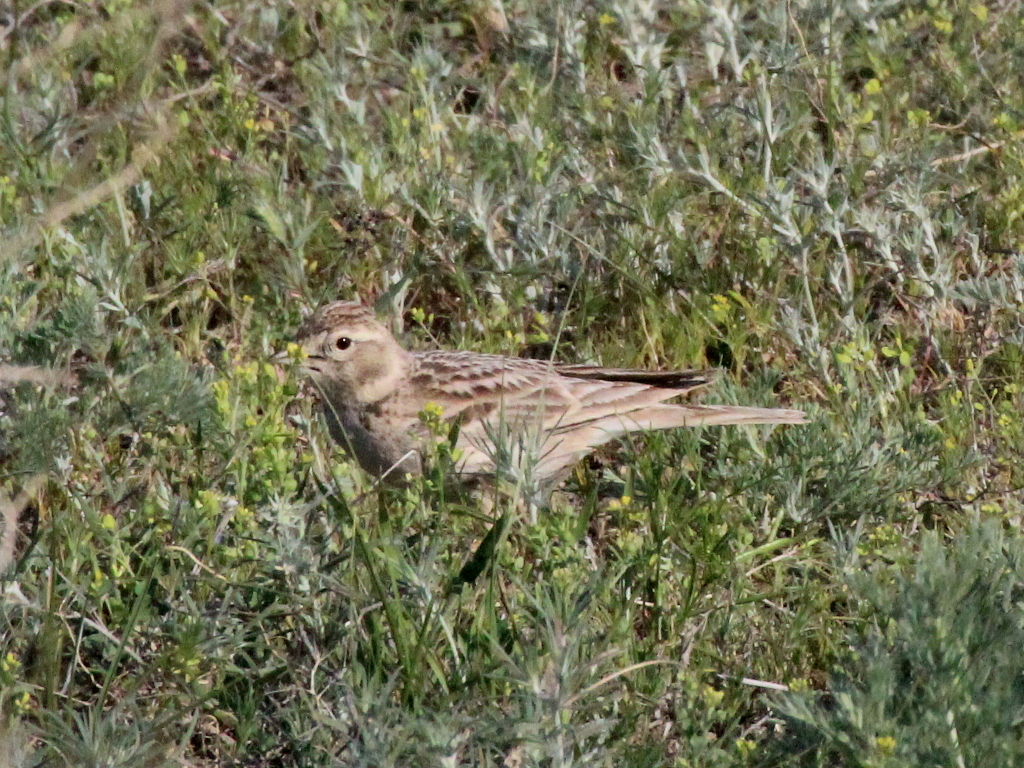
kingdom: Animalia
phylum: Chordata
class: Aves
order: Passeriformes
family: Alaudidae
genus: Calandrella
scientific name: Calandrella brachydactyla
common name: Greater short-toed lark
